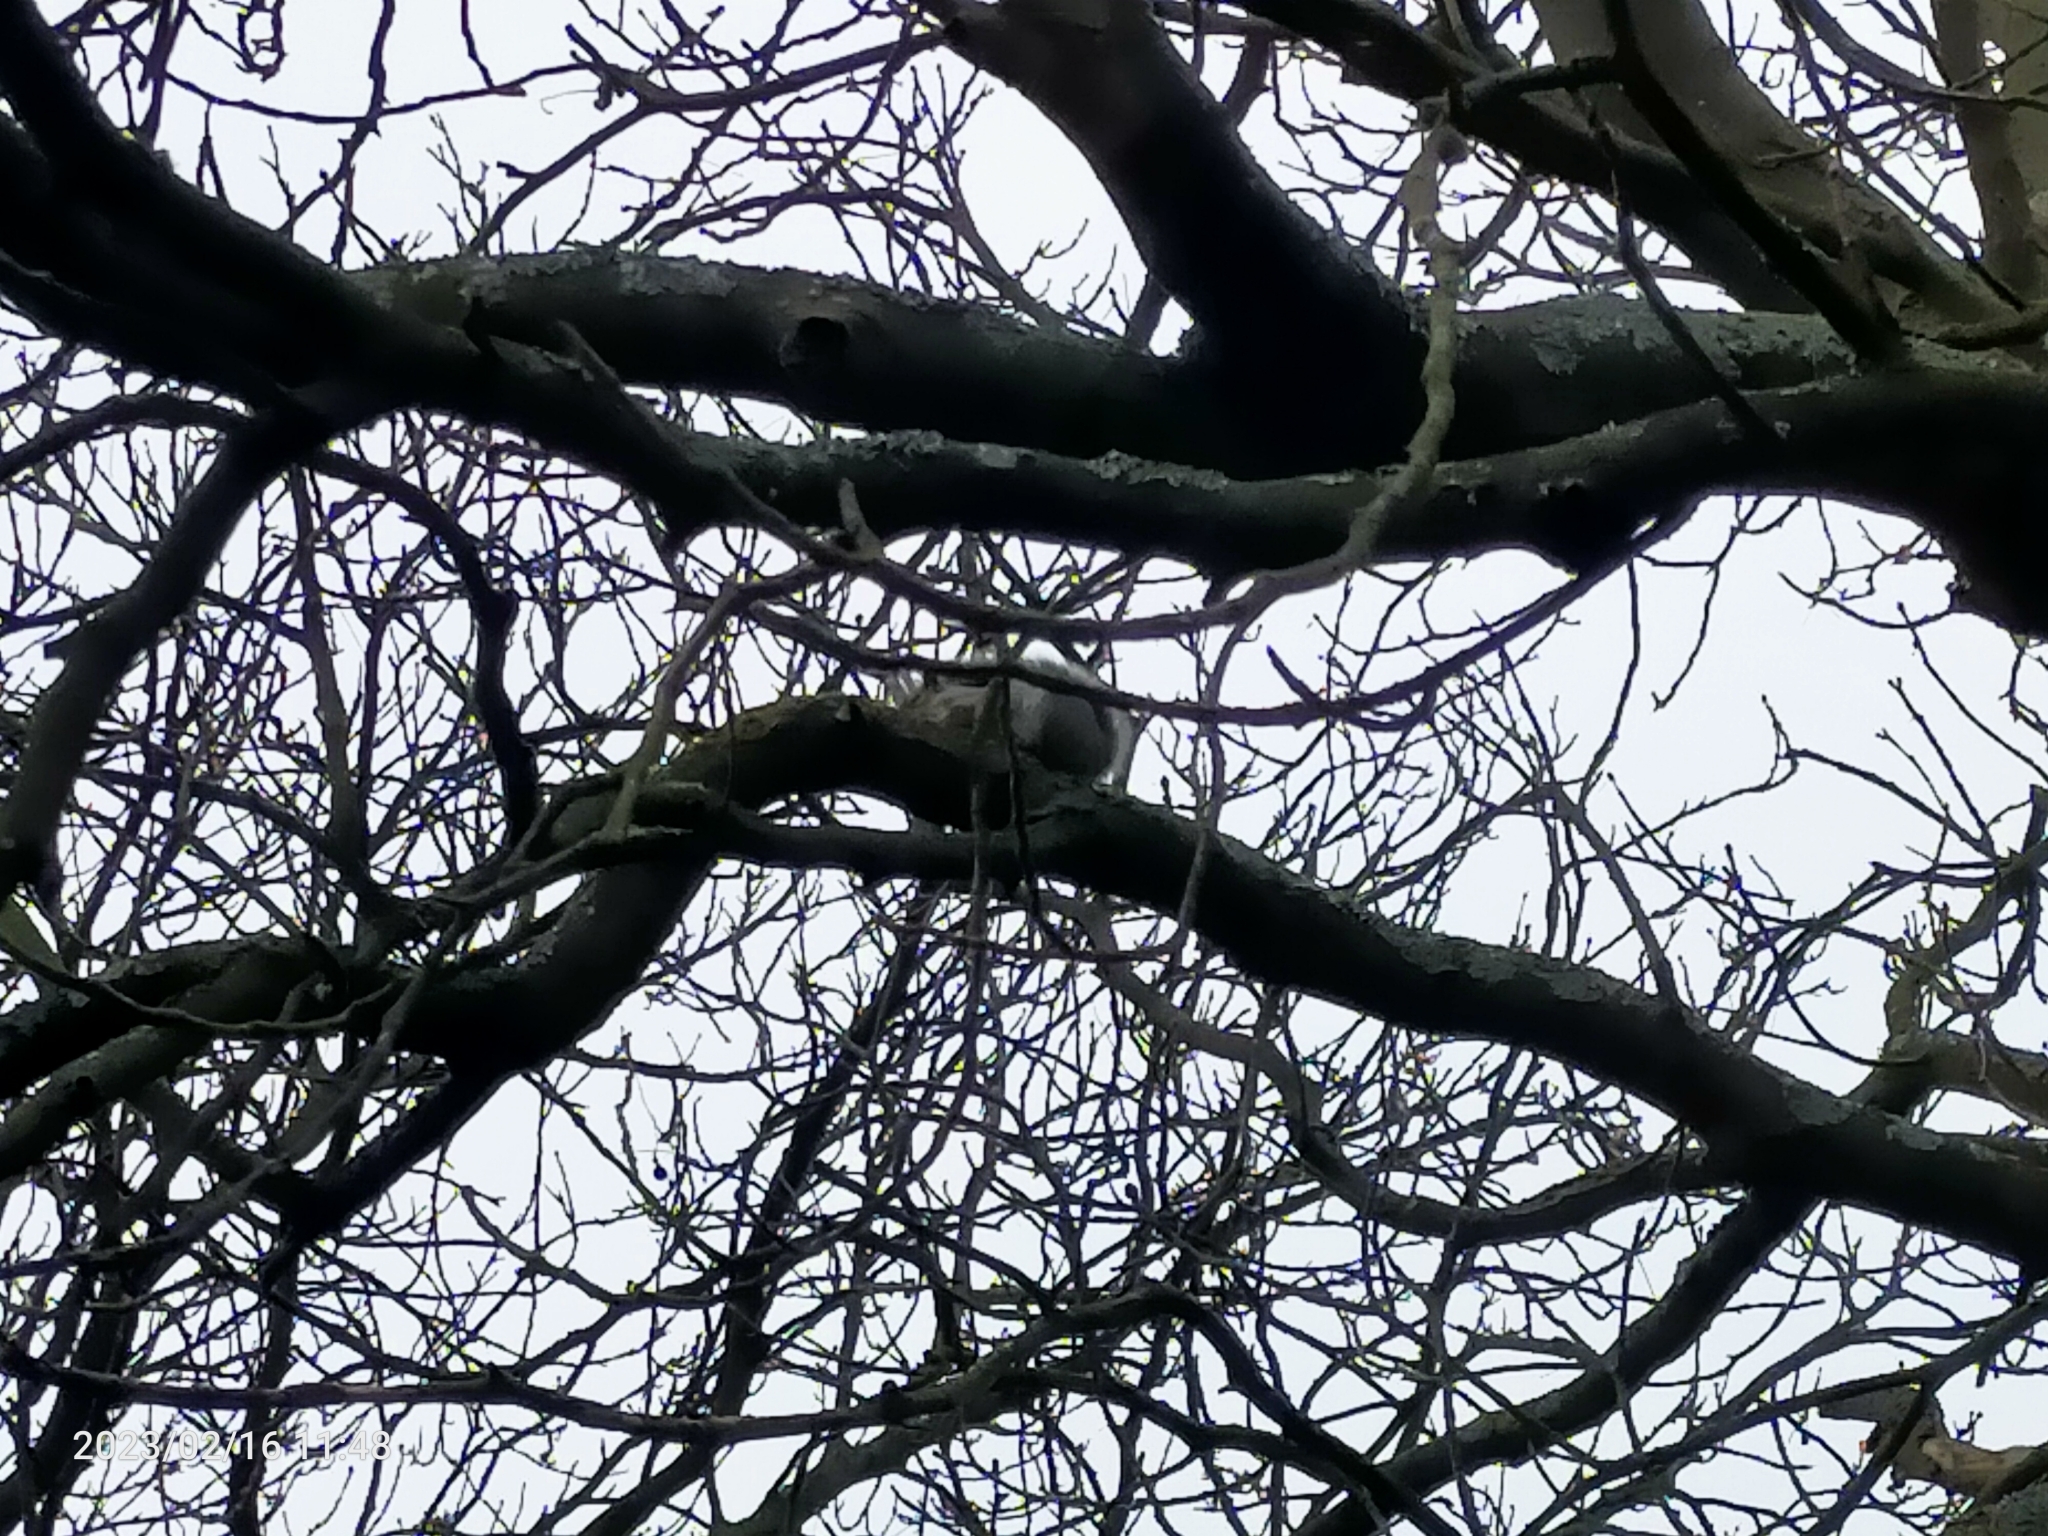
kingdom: Animalia
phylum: Chordata
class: Mammalia
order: Rodentia
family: Sciuridae
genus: Sciurus
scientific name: Sciurus carolinensis
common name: Eastern gray squirrel
